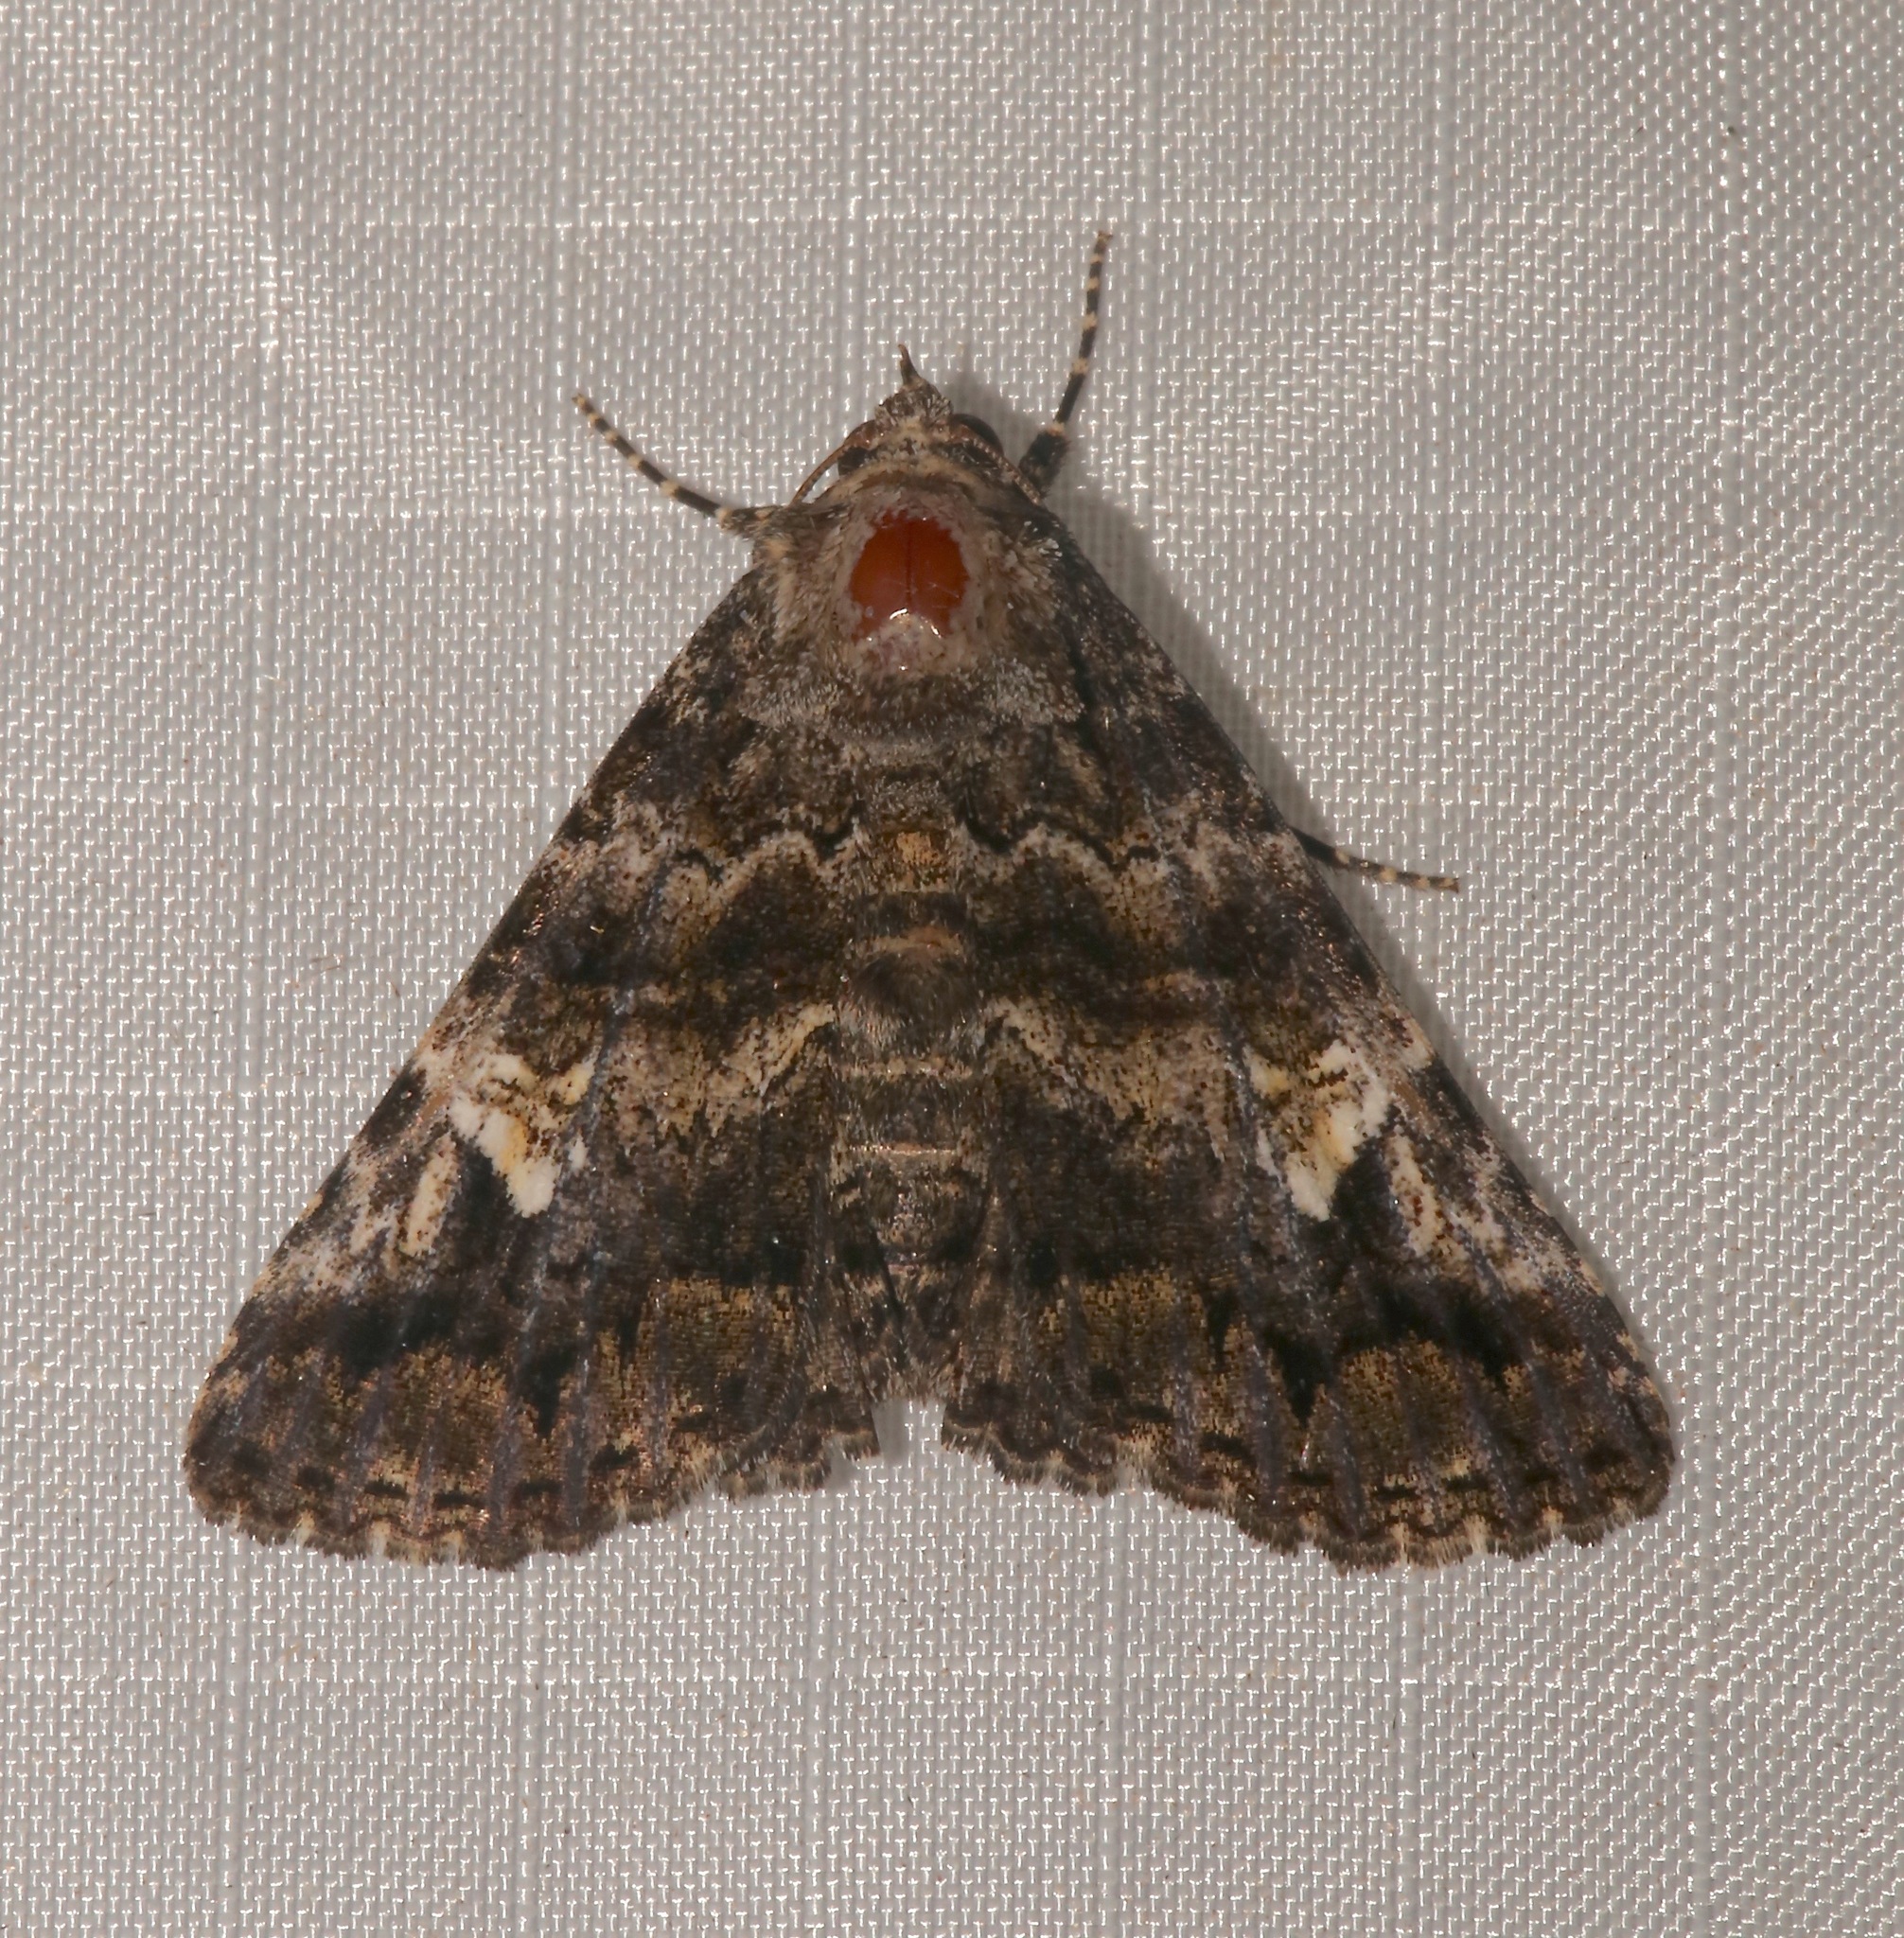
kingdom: Animalia
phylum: Arthropoda
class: Insecta
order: Lepidoptera
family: Erebidae
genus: Metria
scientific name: Metria amella
